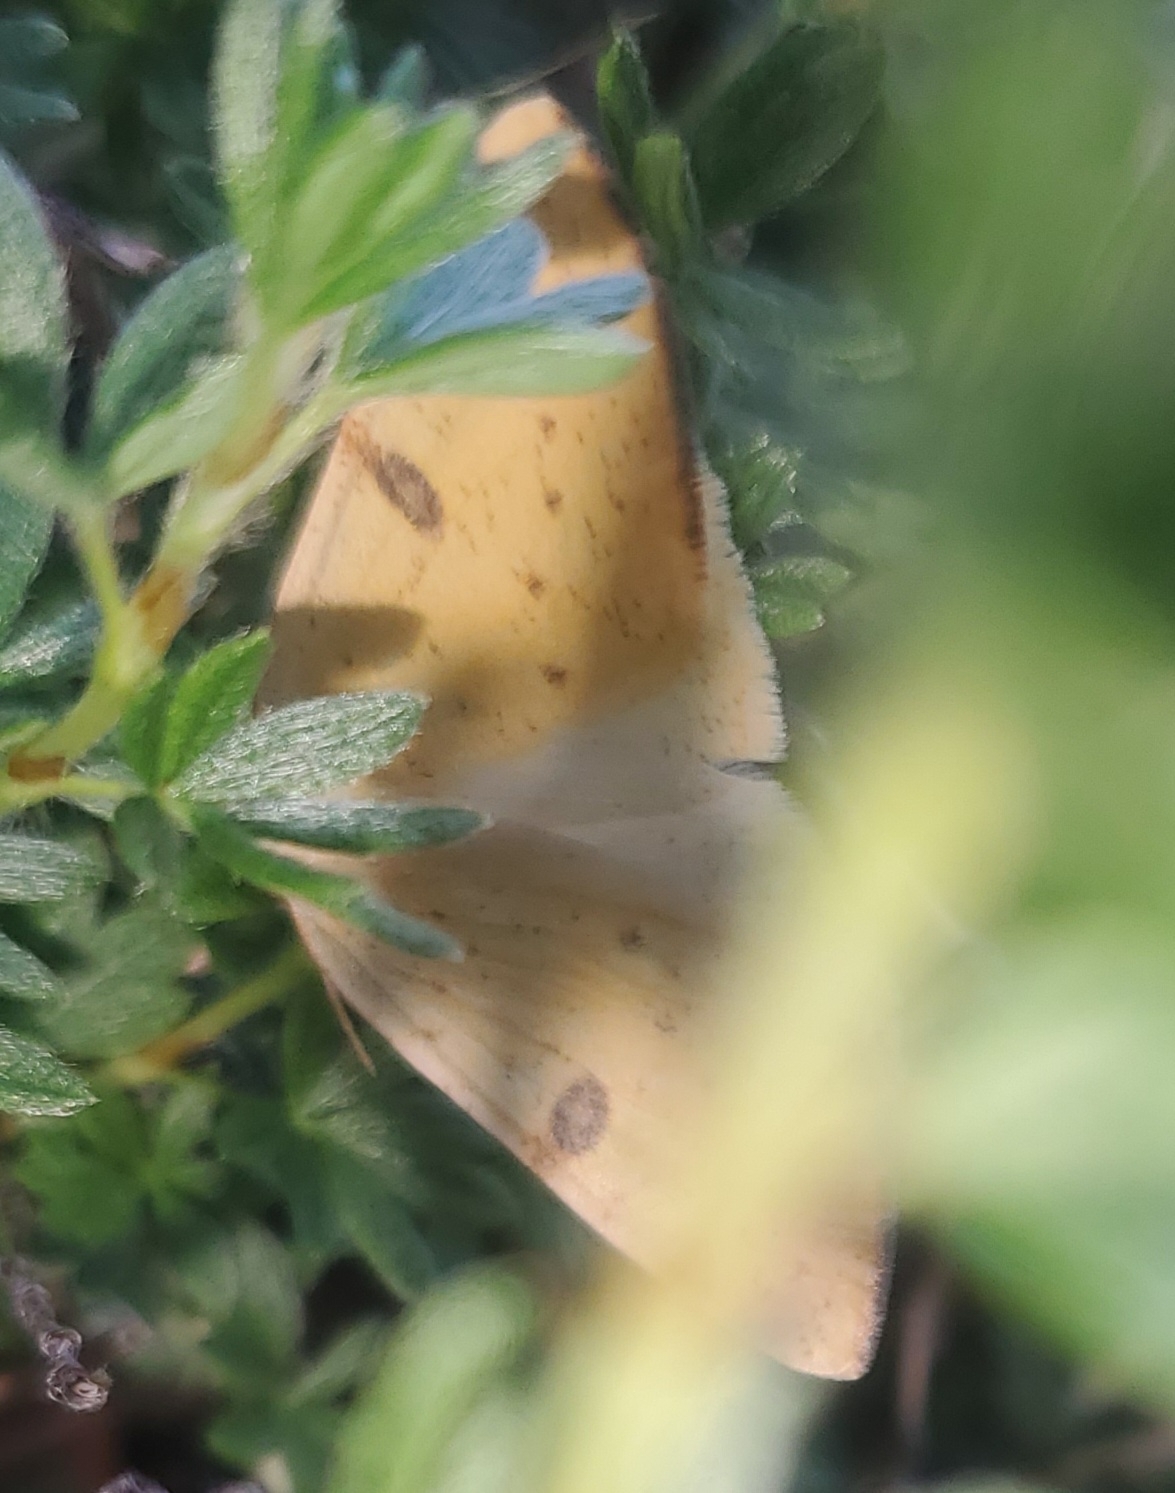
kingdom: Animalia
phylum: Arthropoda
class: Insecta
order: Lepidoptera
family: Geometridae
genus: Hesperumia
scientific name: Hesperumia sulphuraria
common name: Sulphur moth
